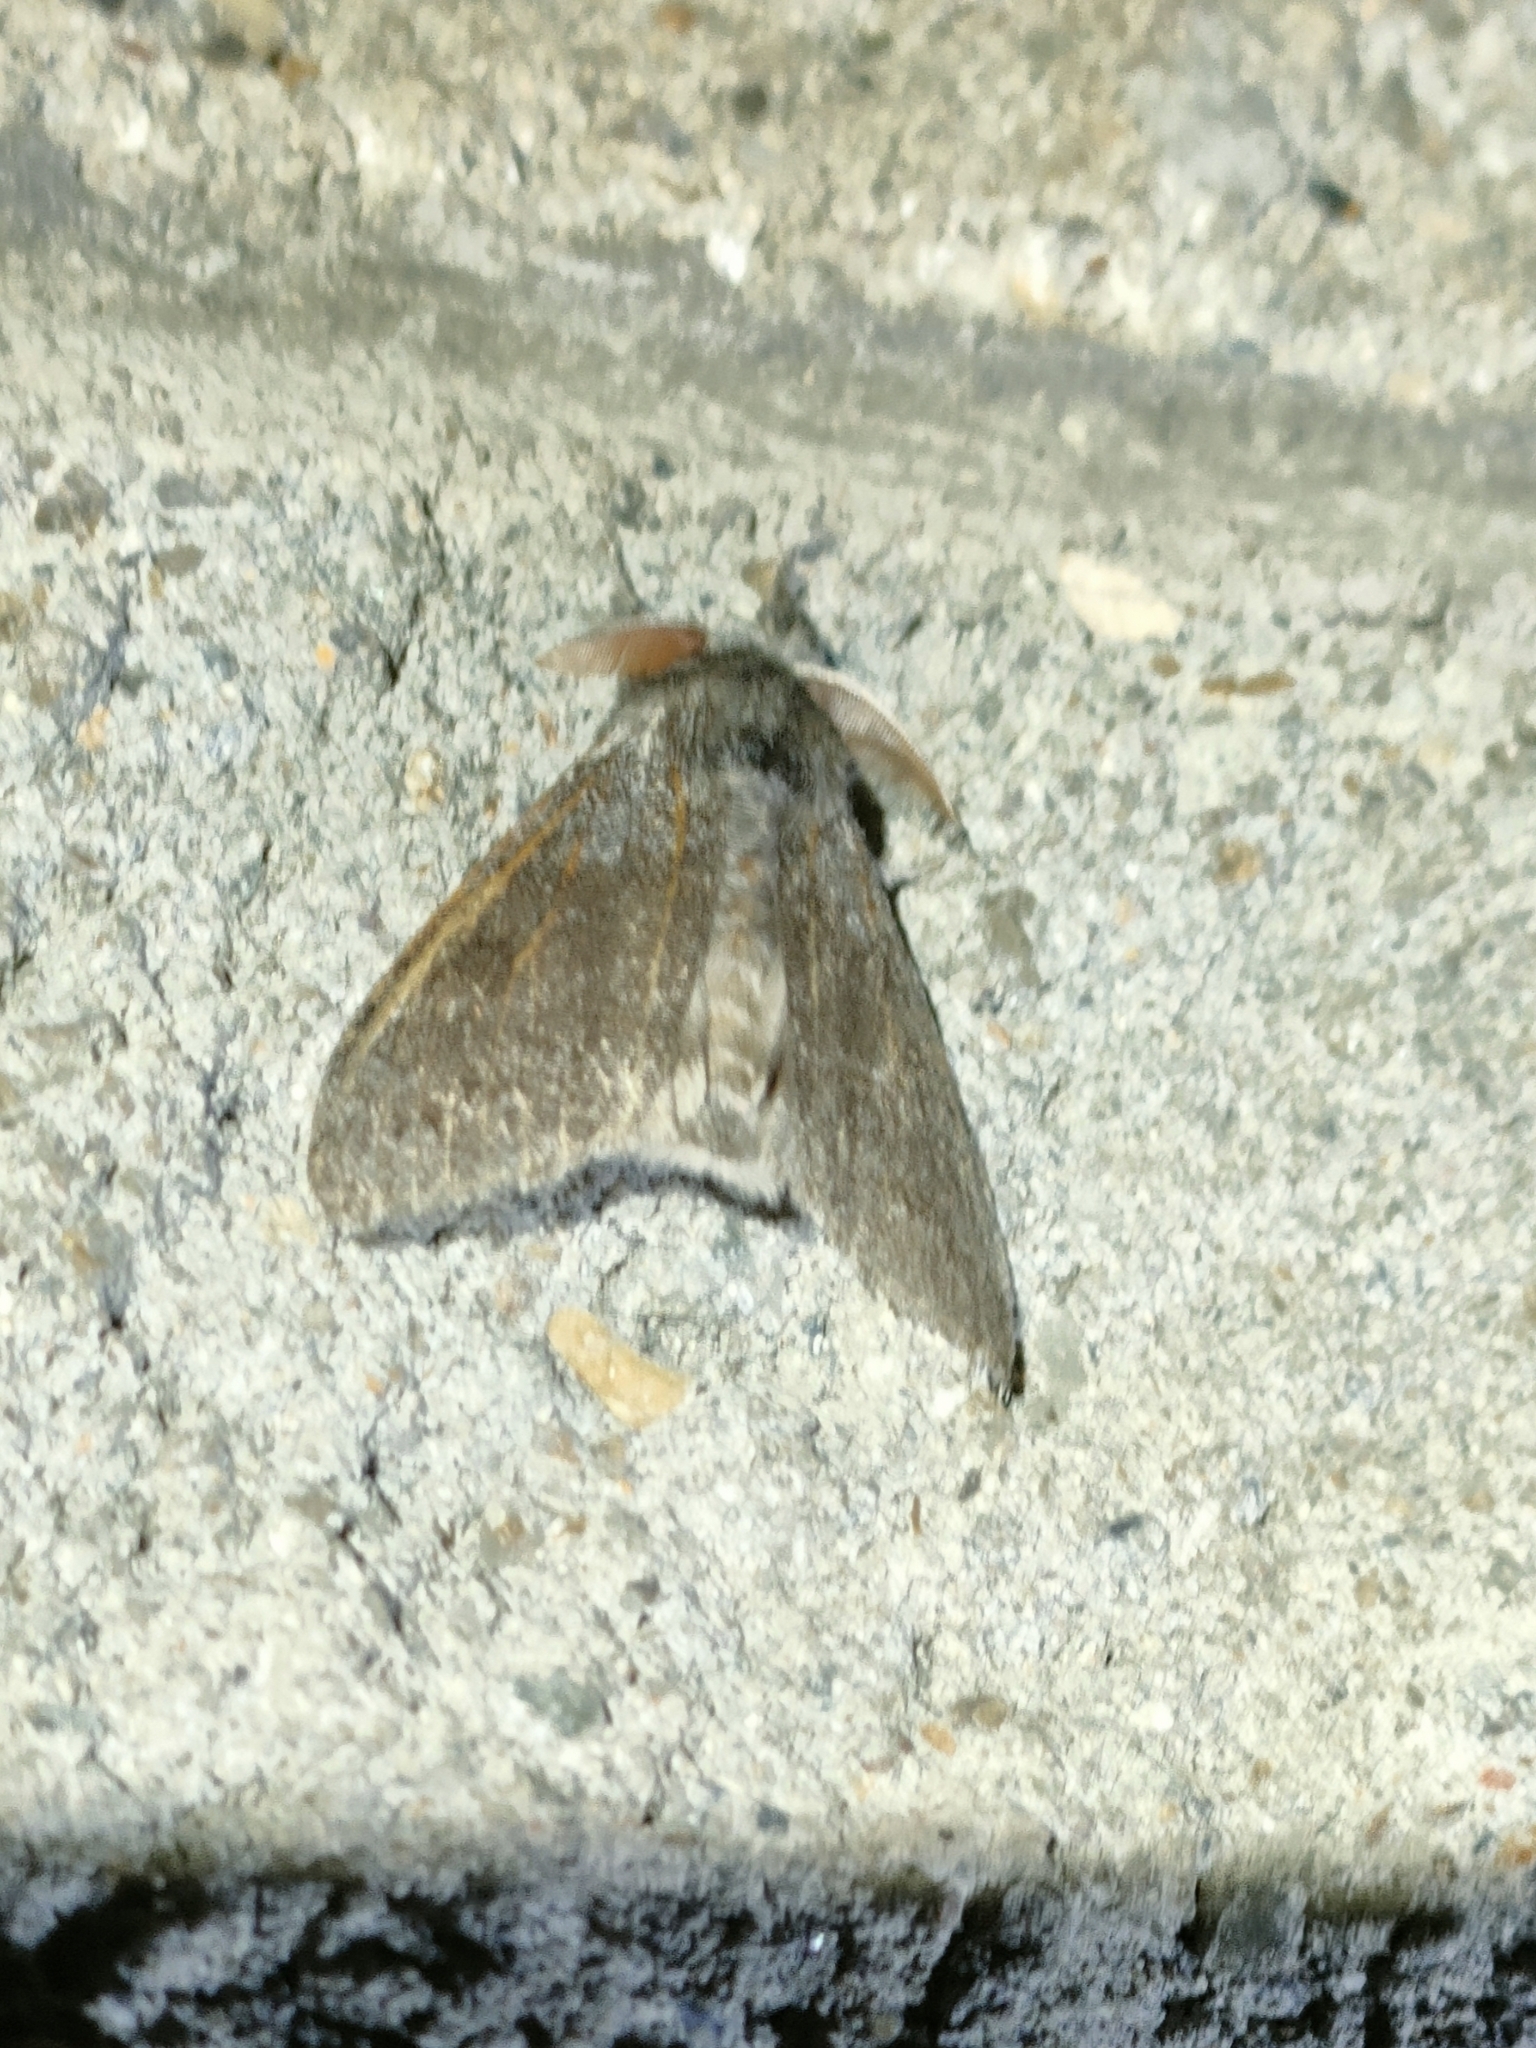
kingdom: Animalia
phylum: Arthropoda
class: Insecta
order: Lepidoptera
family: Erebidae
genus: Calliteara
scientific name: Calliteara pudibunda
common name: Pale tussock
